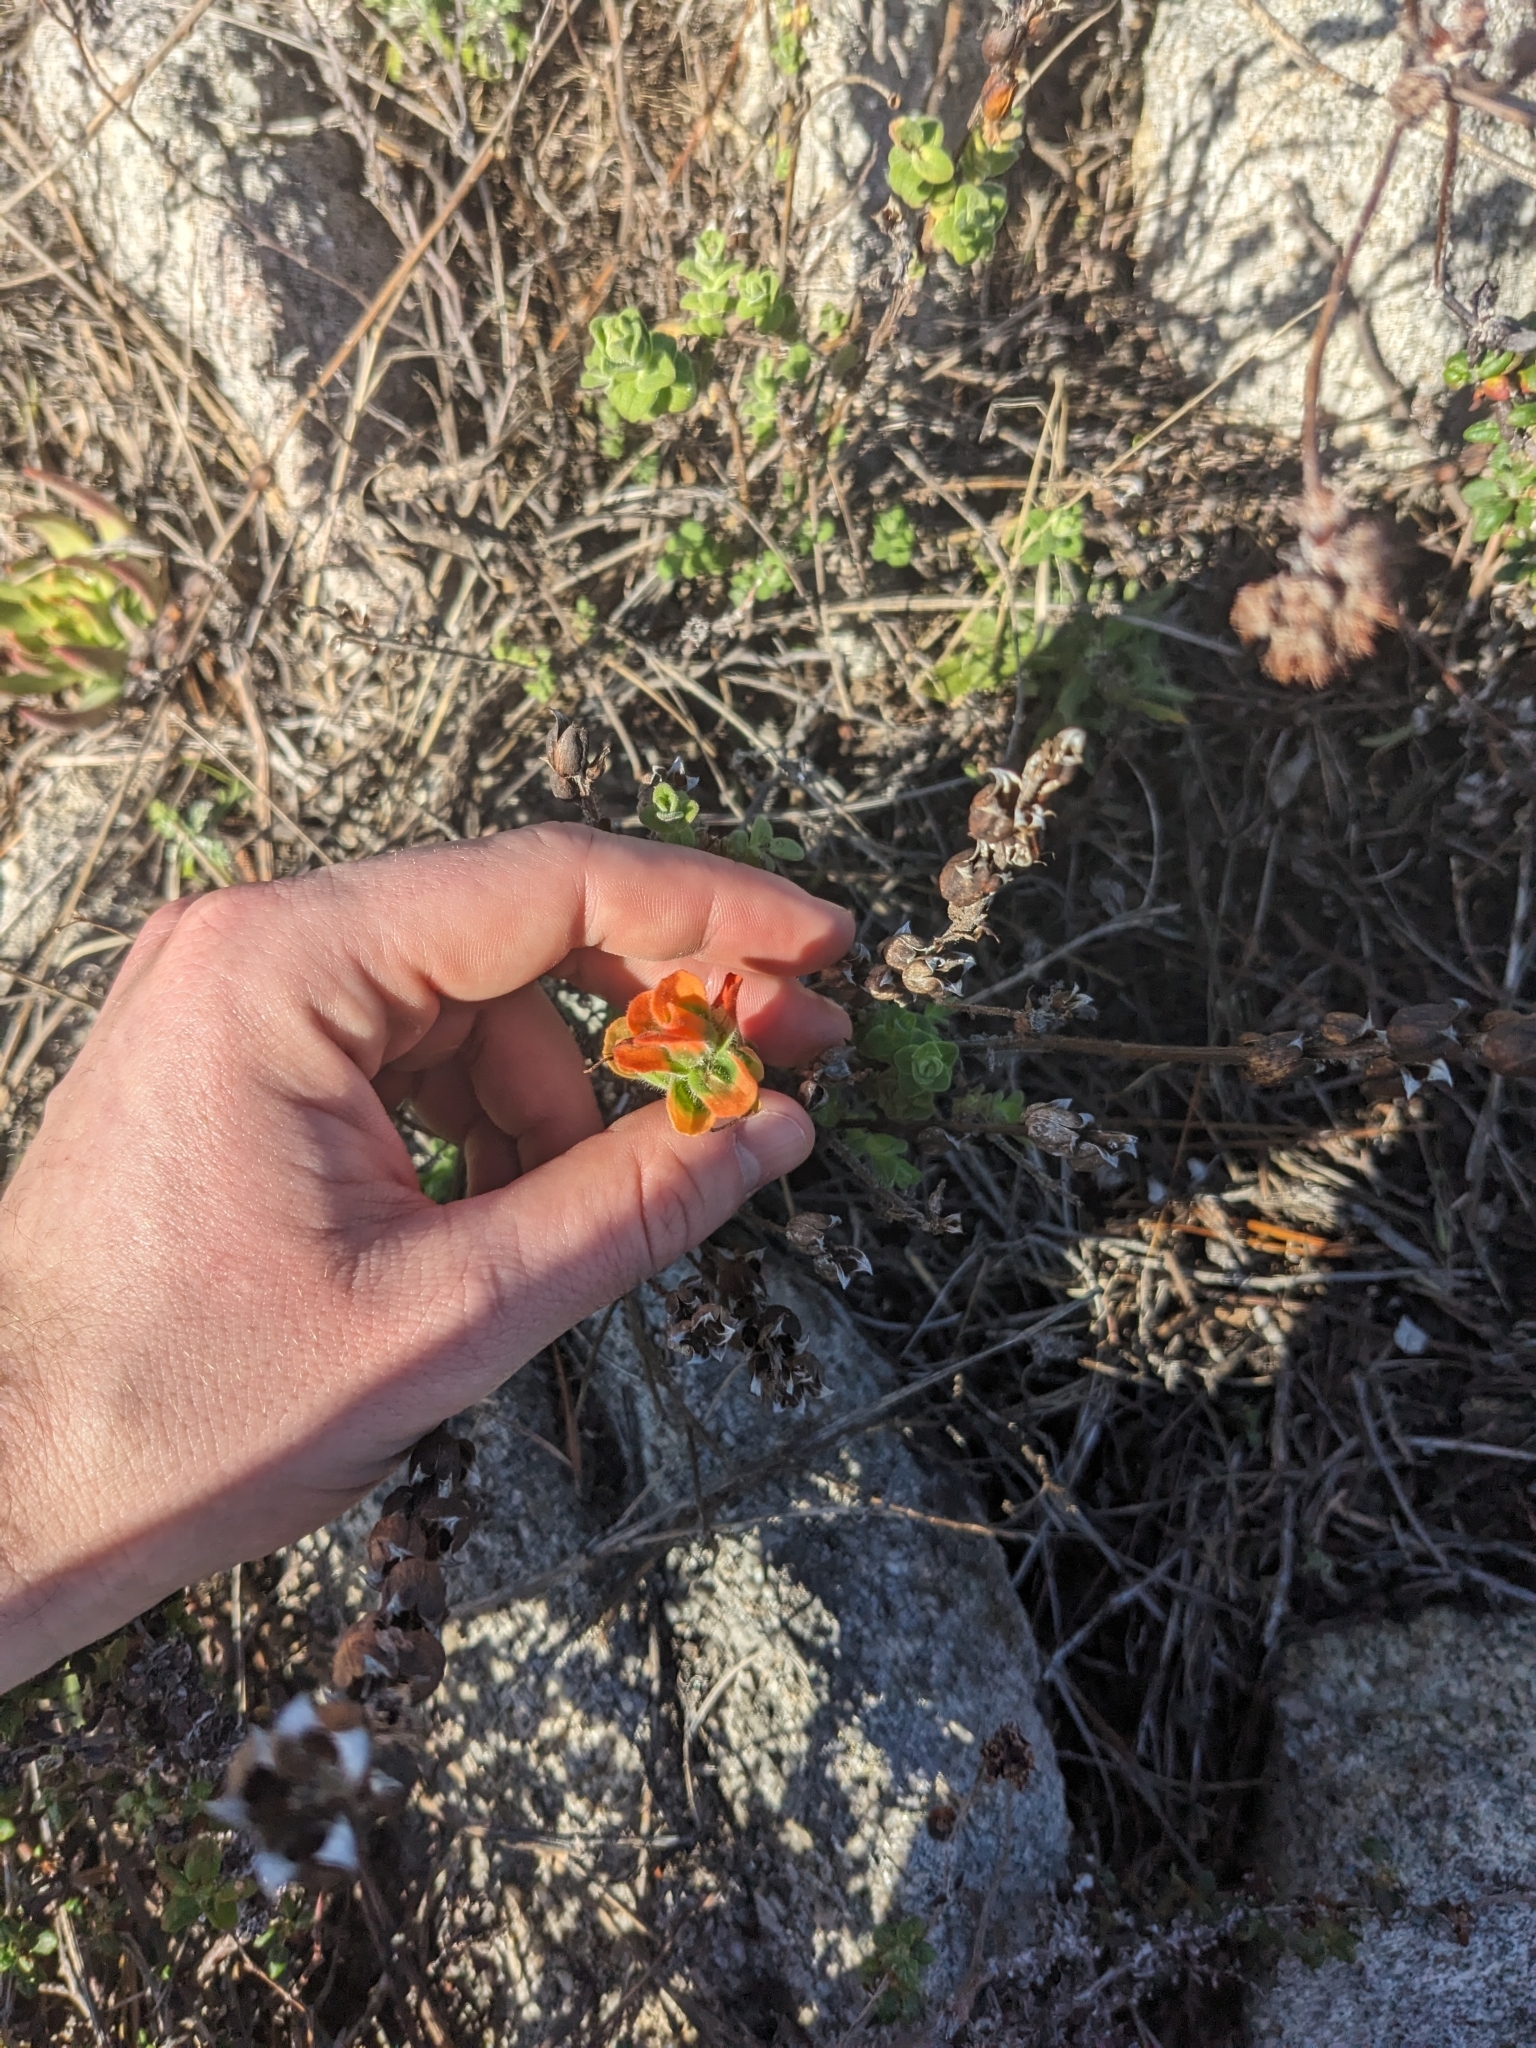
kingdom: Plantae
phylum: Tracheophyta
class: Magnoliopsida
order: Lamiales
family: Orobanchaceae
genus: Castilleja
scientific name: Castilleja latifolia
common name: Monterey indian paintbrush
